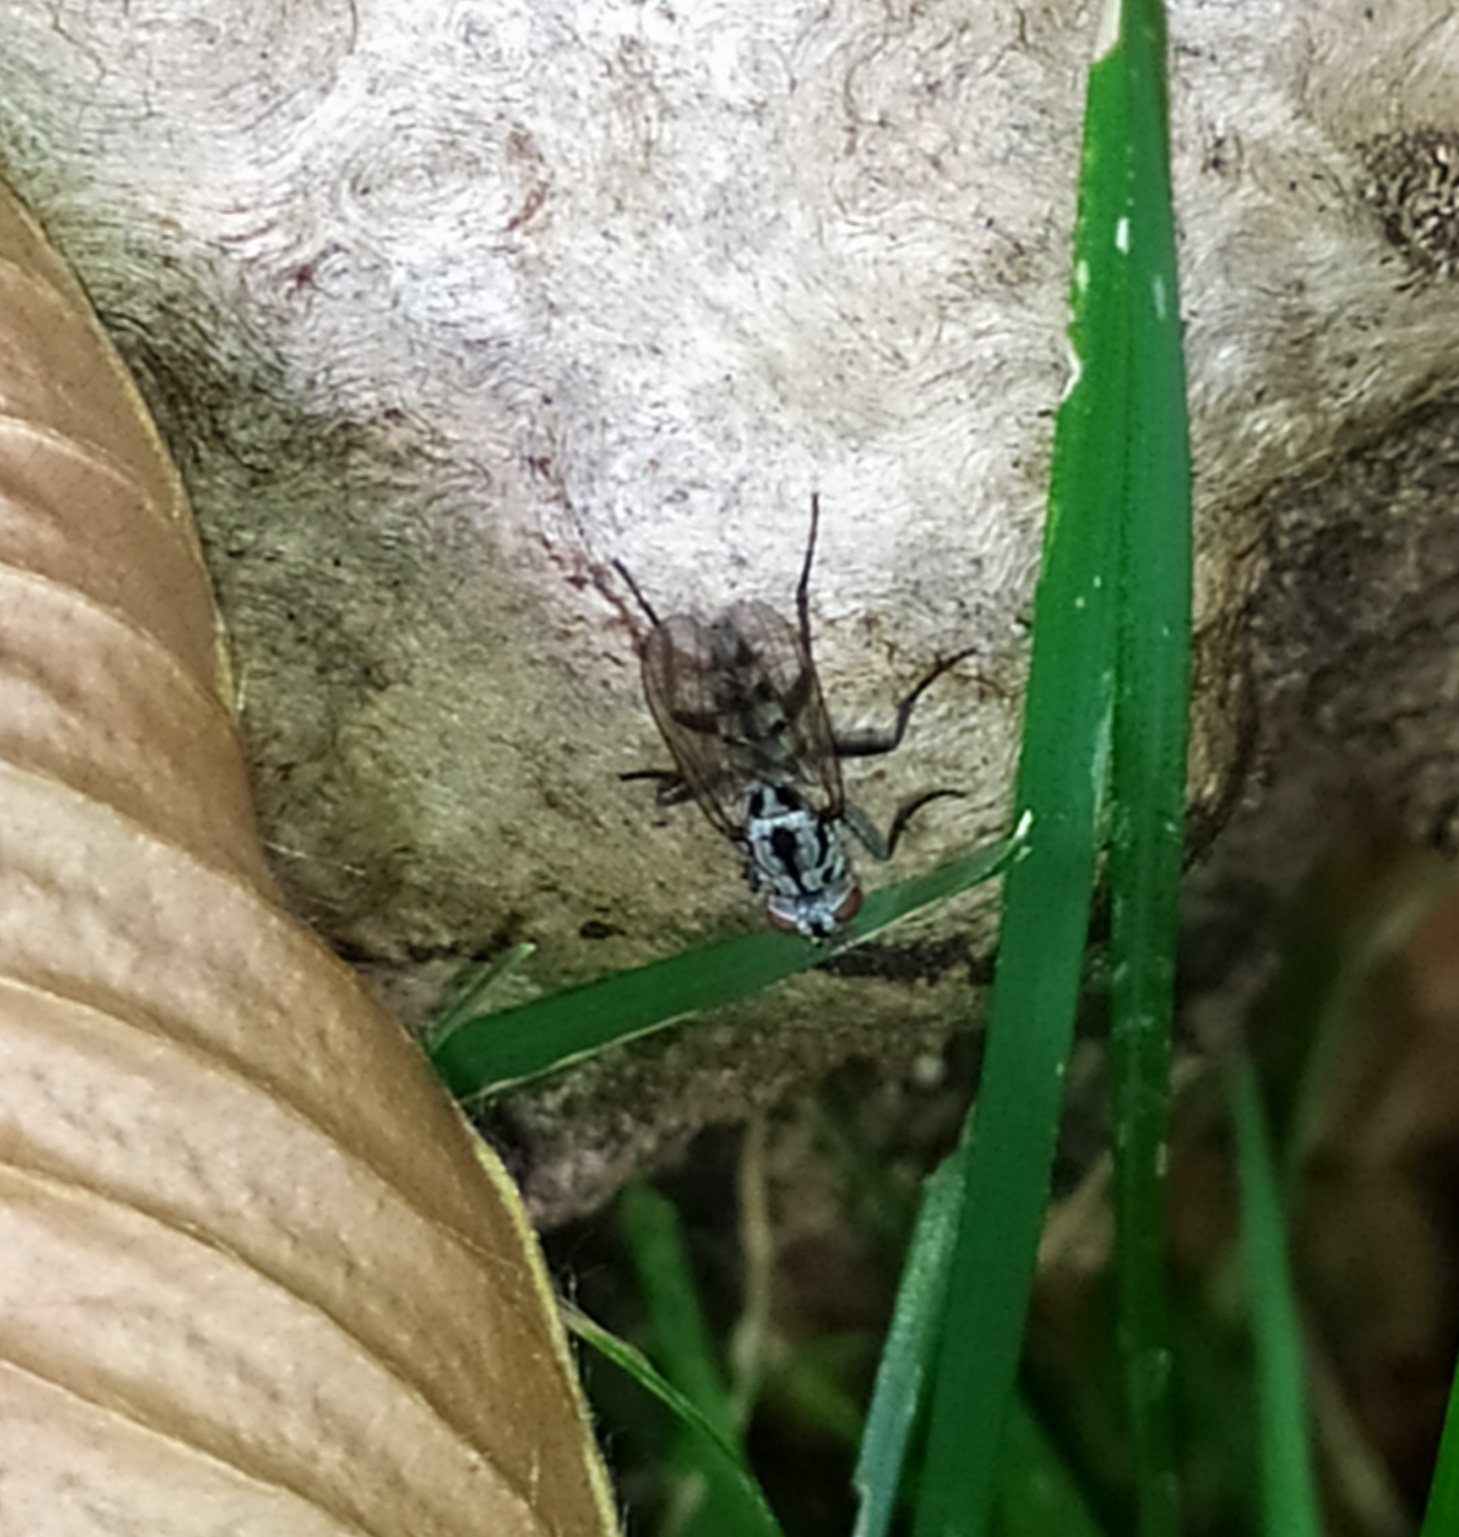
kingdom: Animalia
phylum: Arthropoda
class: Insecta
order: Diptera
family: Anthomyiidae
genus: Eustalomyia
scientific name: Eustalomyia hilaris
